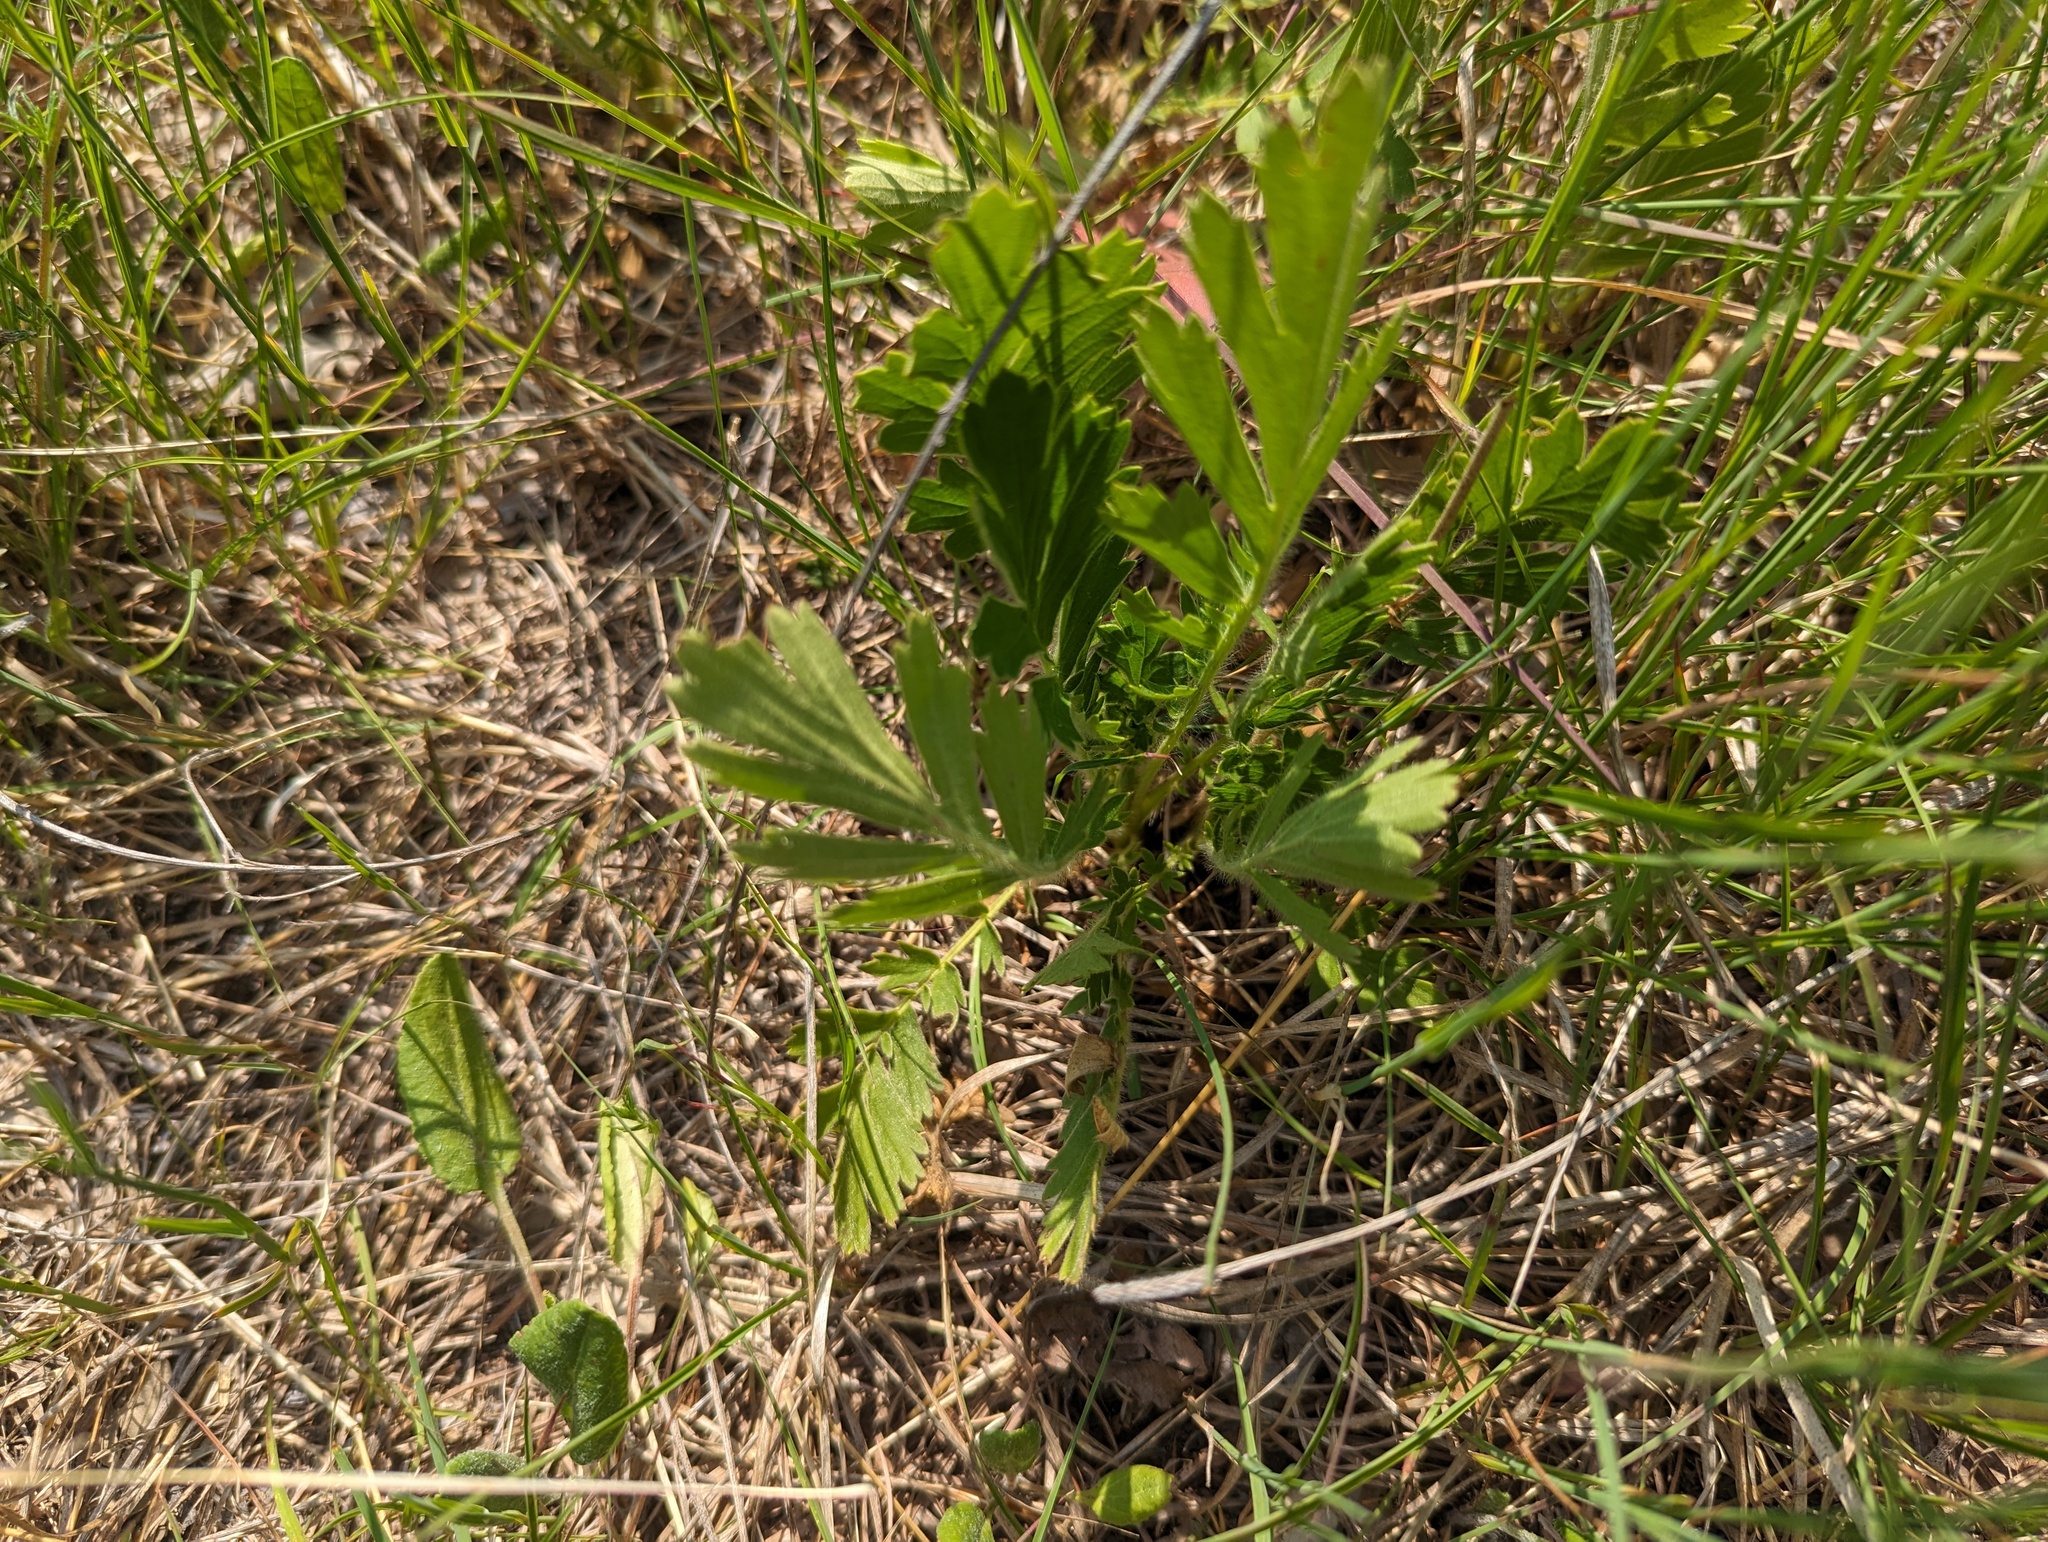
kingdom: Plantae
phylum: Tracheophyta
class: Magnoliopsida
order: Rosales
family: Rosaceae
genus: Geum
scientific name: Geum triflorum
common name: Old man's whiskers
